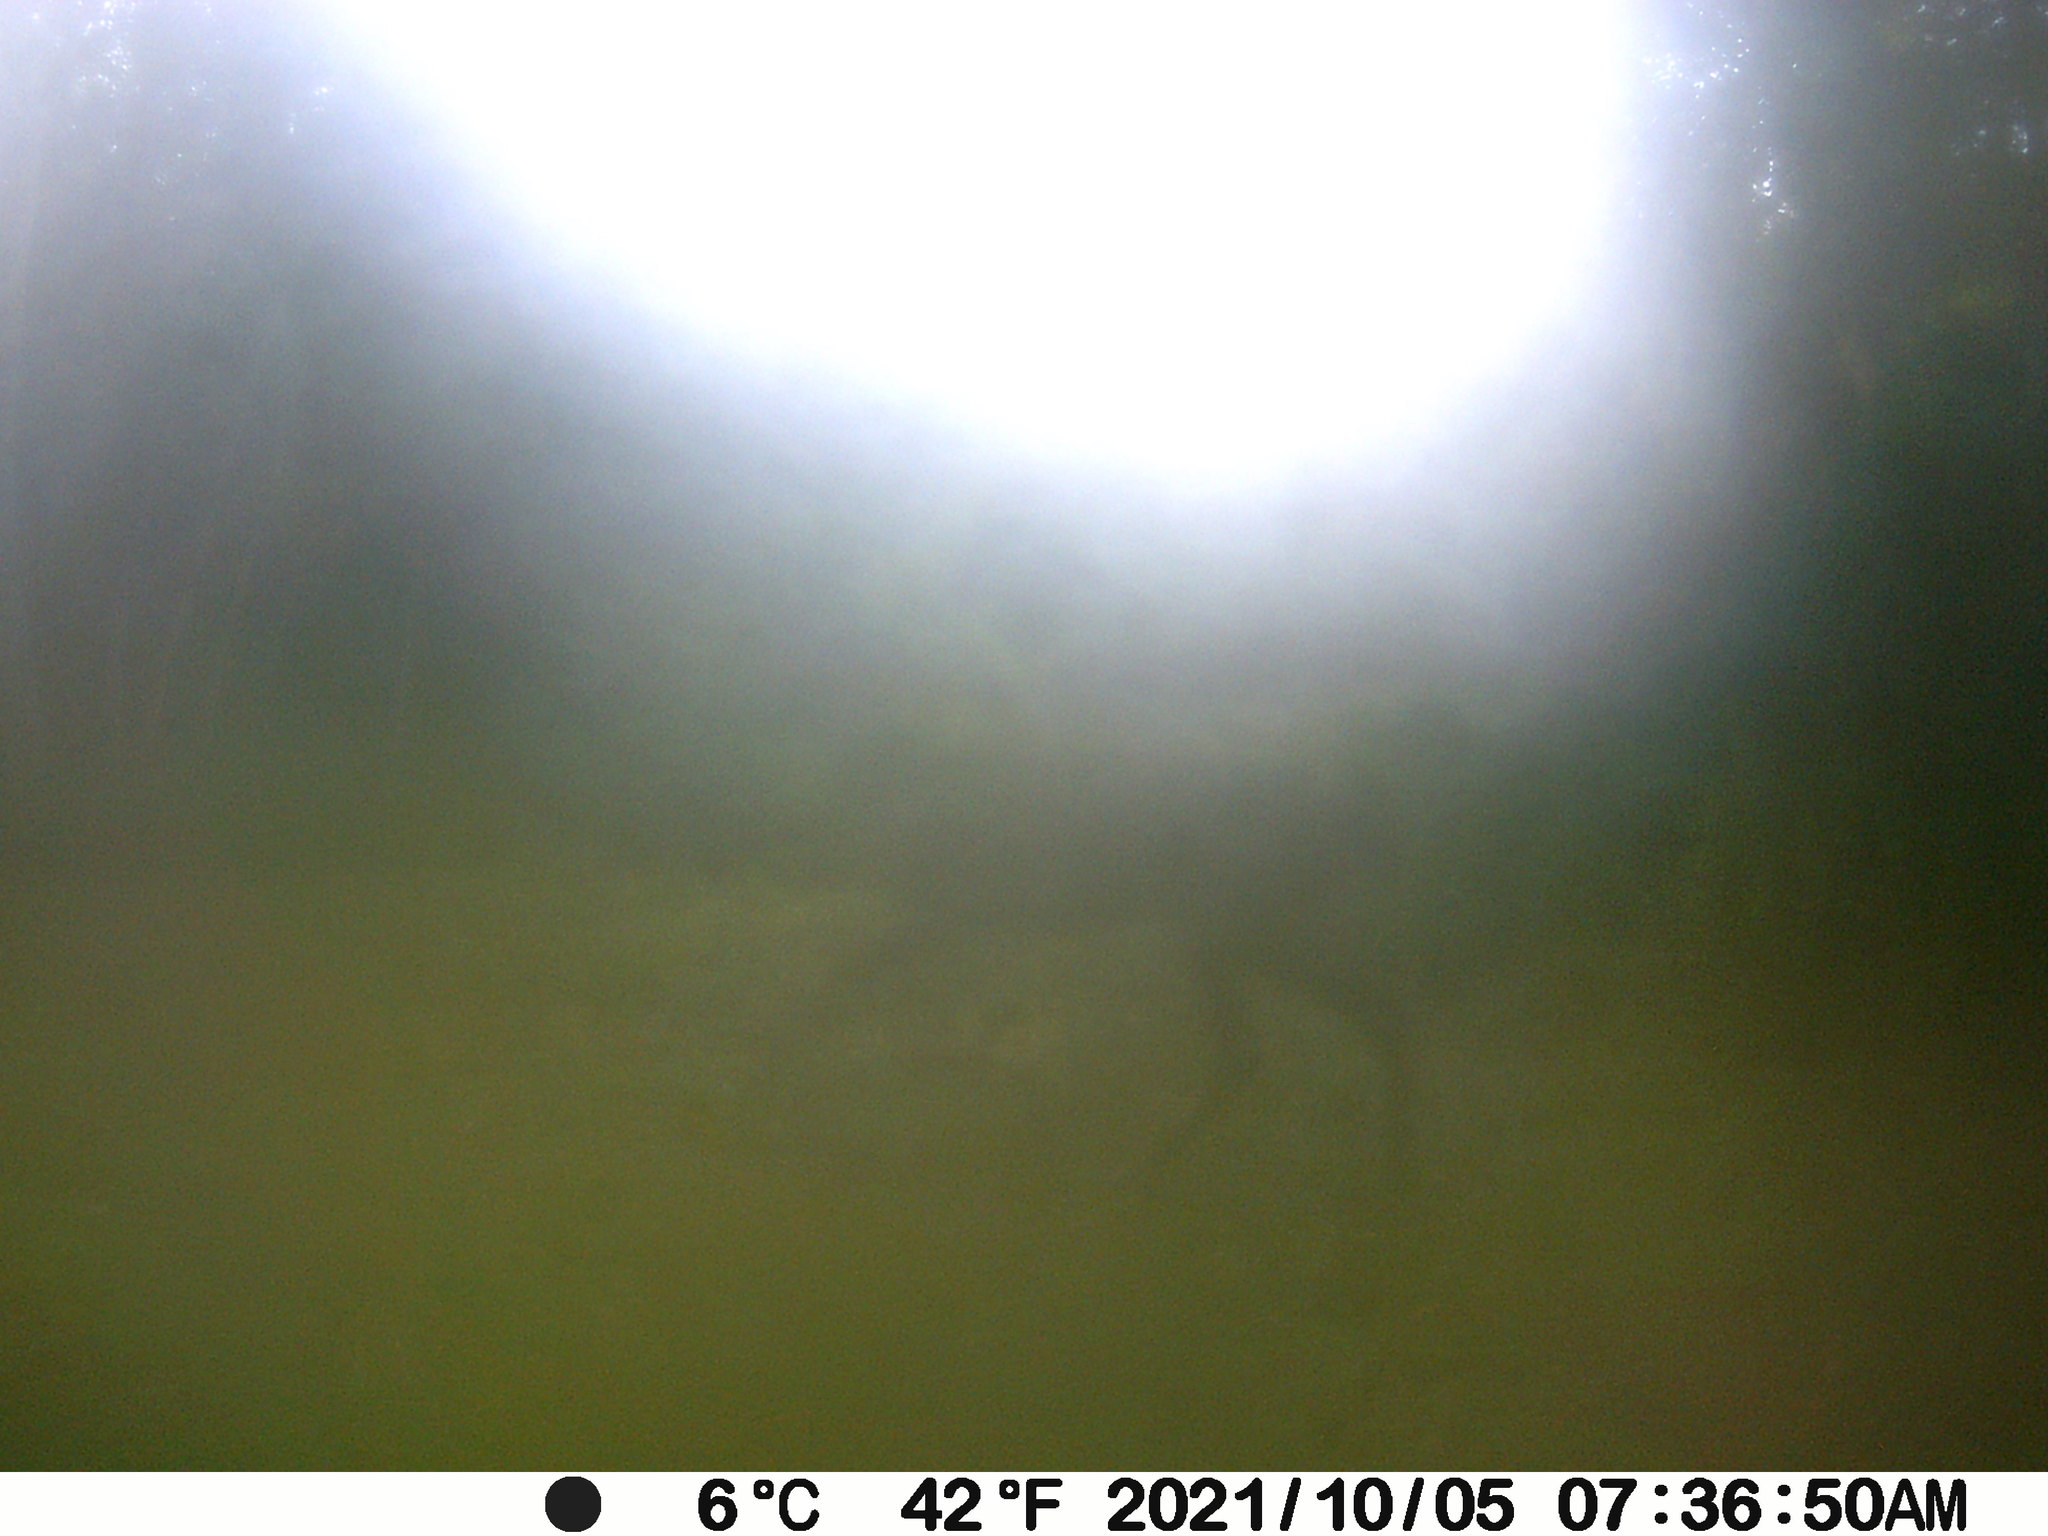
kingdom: Animalia
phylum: Chordata
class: Mammalia
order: Artiodactyla
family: Cervidae
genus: Odocoileus
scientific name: Odocoileus virginianus
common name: White-tailed deer
